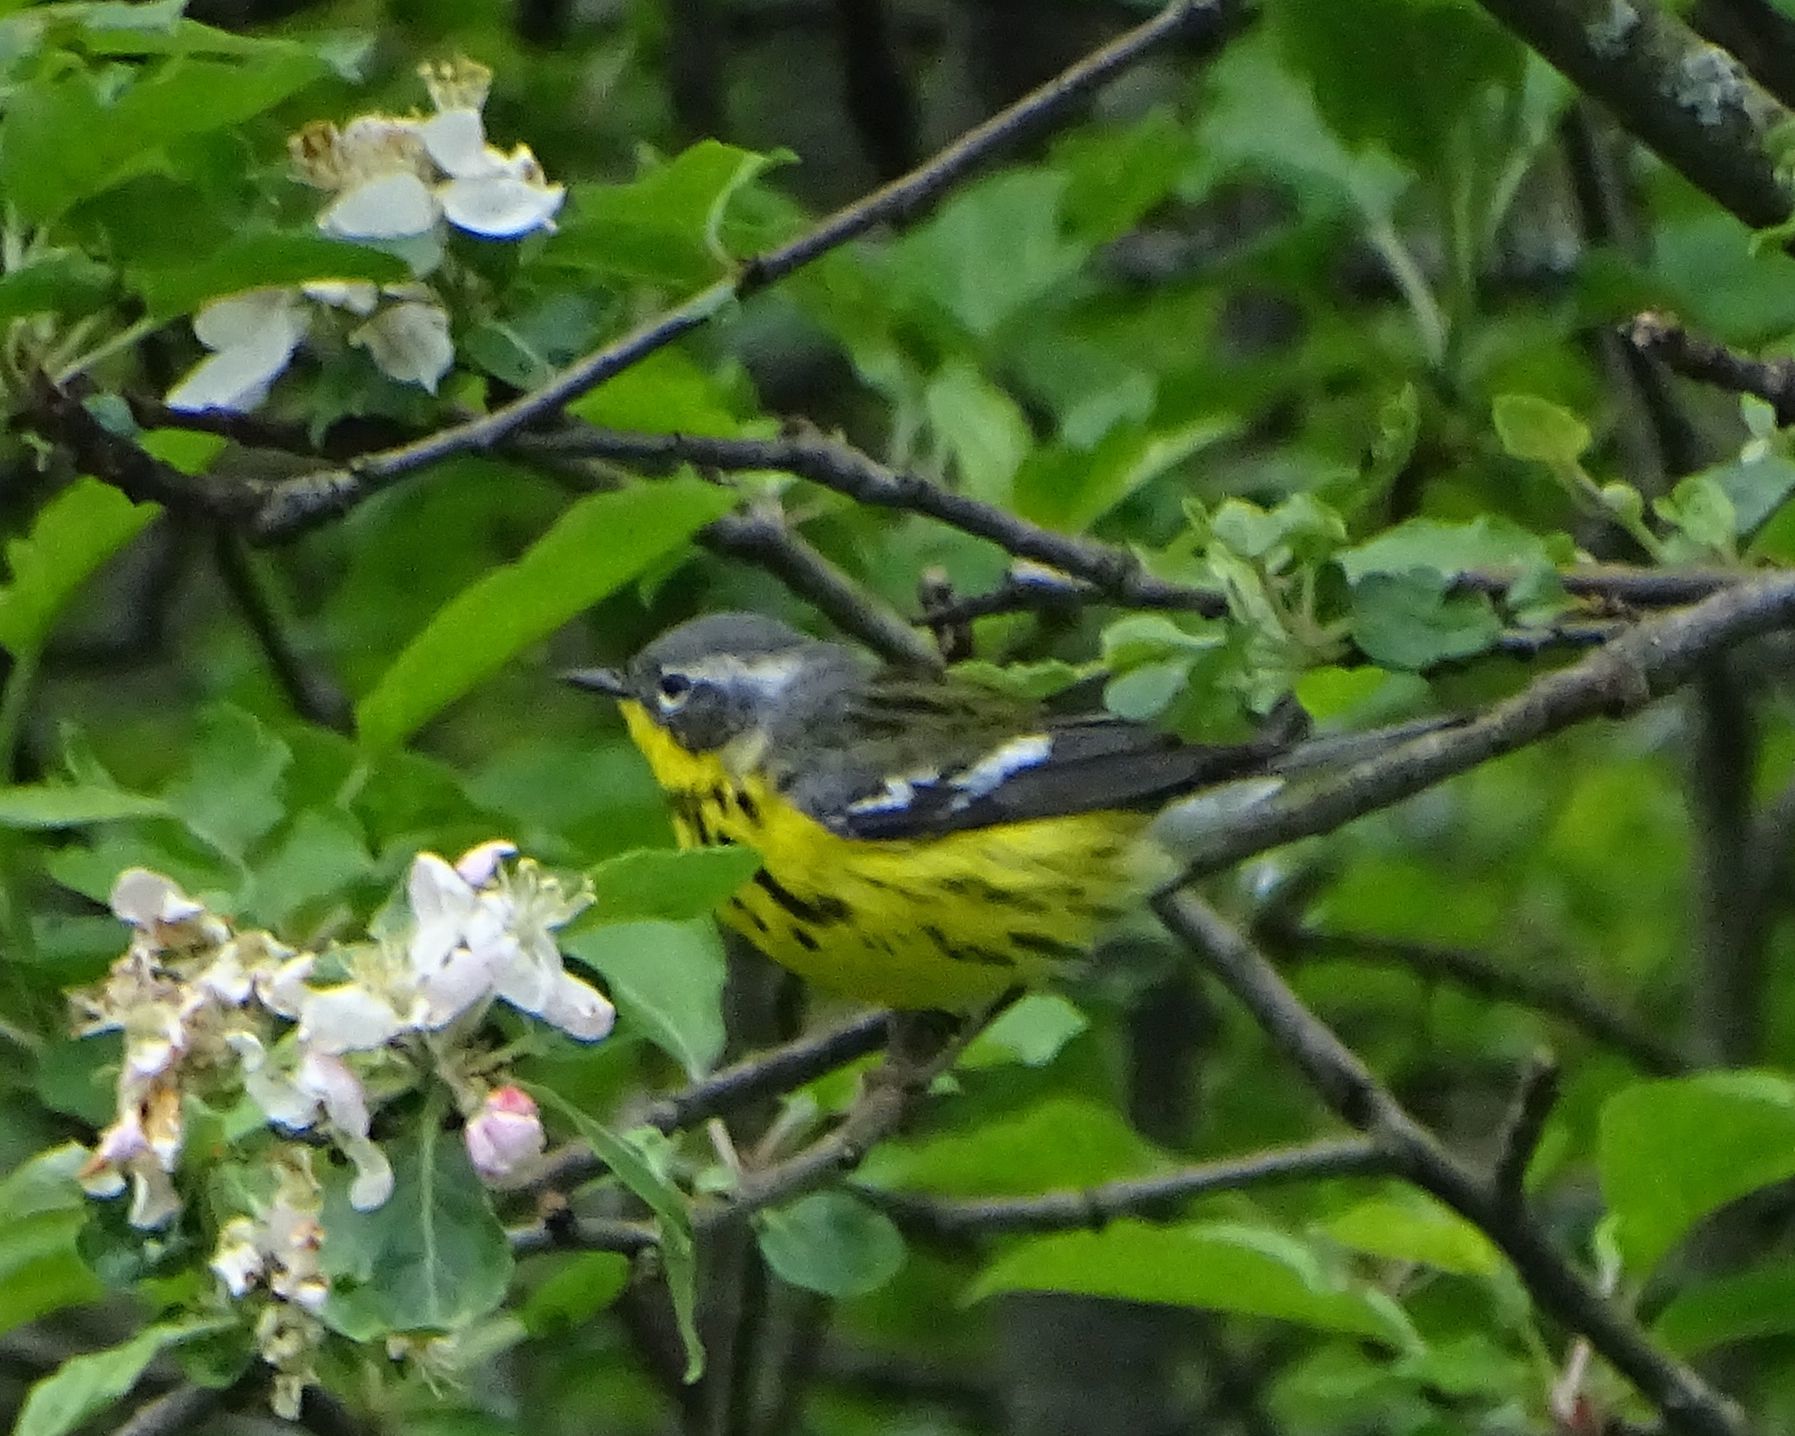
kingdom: Animalia
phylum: Chordata
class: Aves
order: Passeriformes
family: Parulidae
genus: Setophaga
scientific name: Setophaga magnolia
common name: Magnolia warbler
